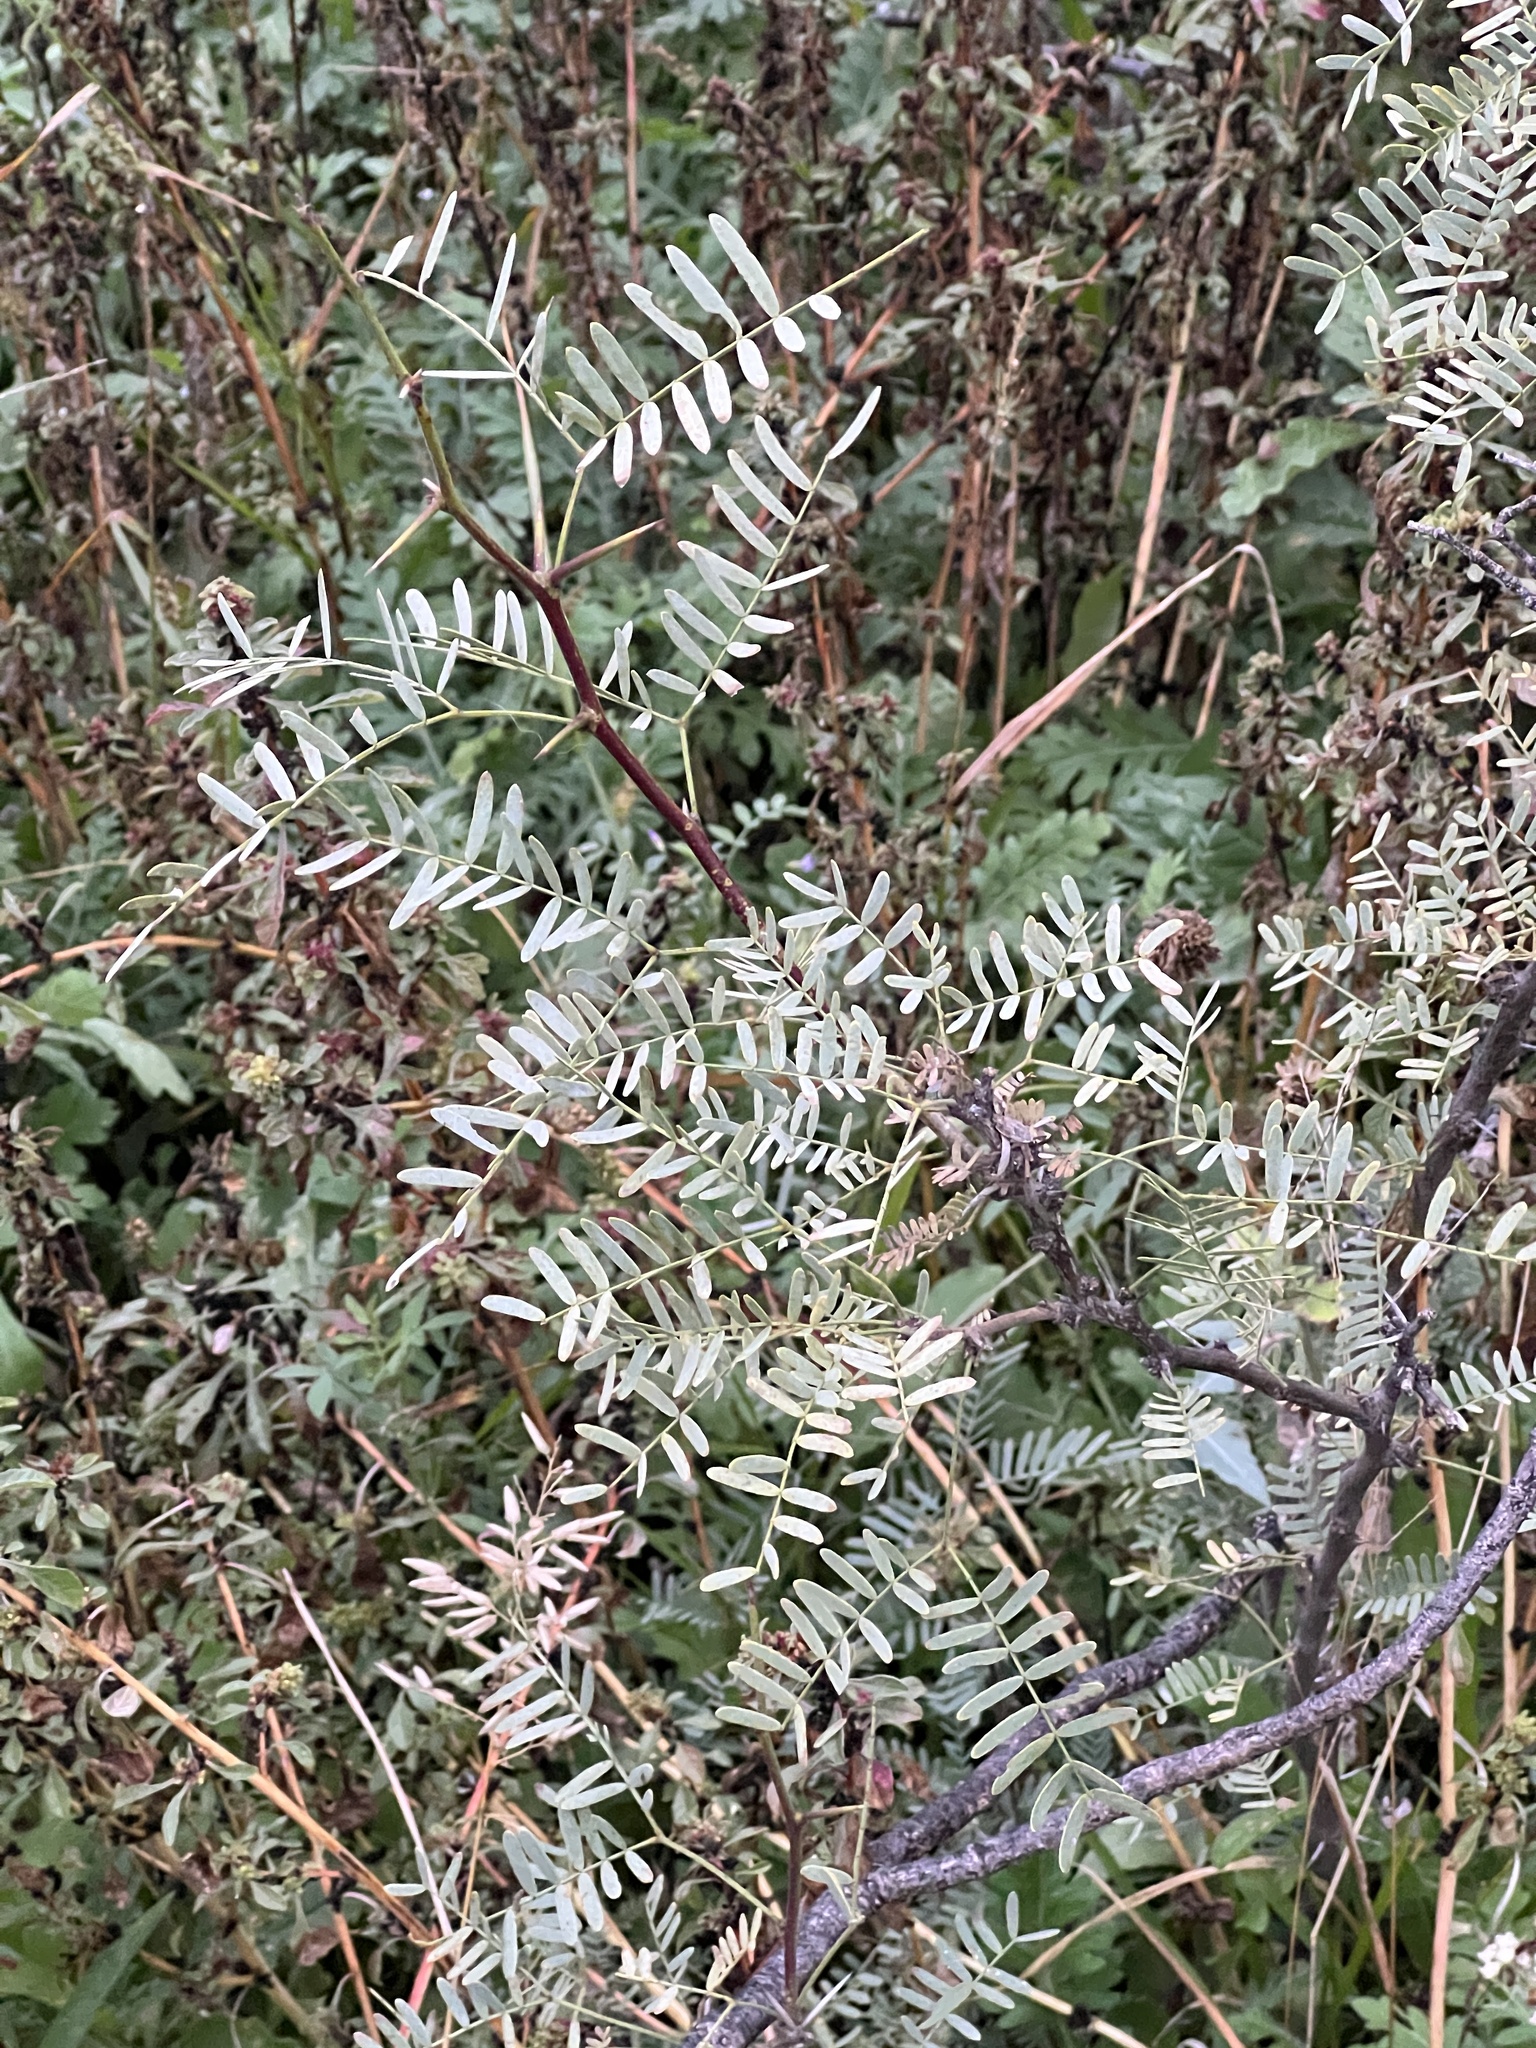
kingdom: Plantae
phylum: Tracheophyta
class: Magnoliopsida
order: Fabales
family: Fabaceae
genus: Prosopis
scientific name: Prosopis glandulosa
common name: Honey mesquite
